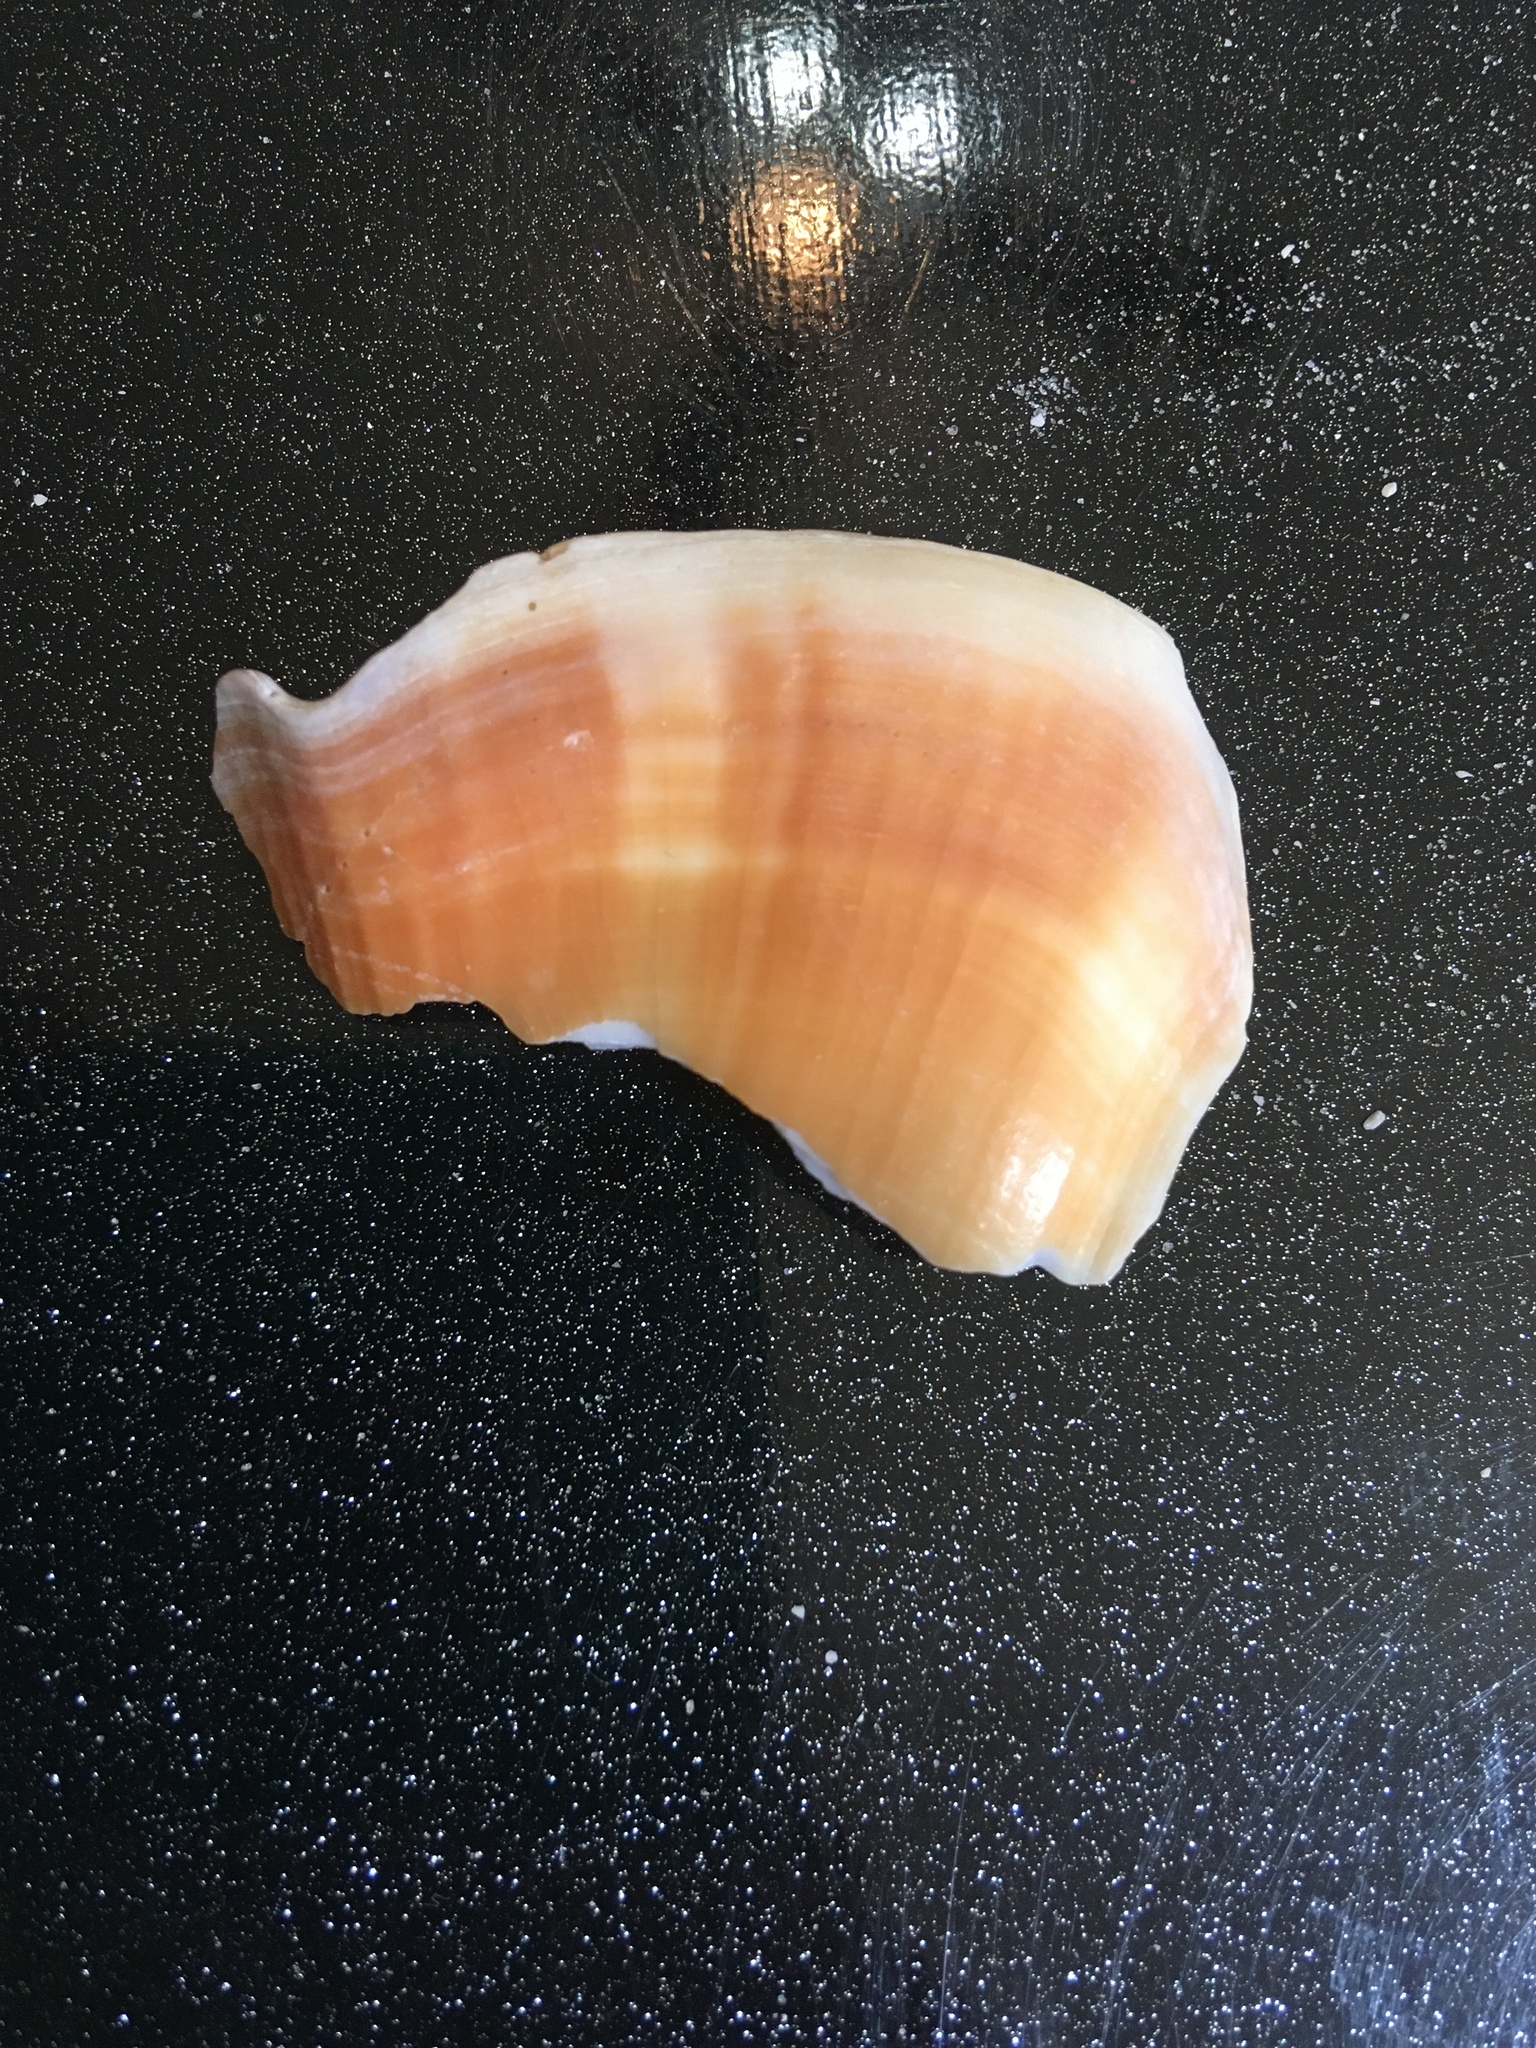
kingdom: Animalia
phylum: Mollusca
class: Gastropoda
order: Littorinimorpha
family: Strombidae
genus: Strombus
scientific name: Strombus alatus
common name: Florida fighting conch
